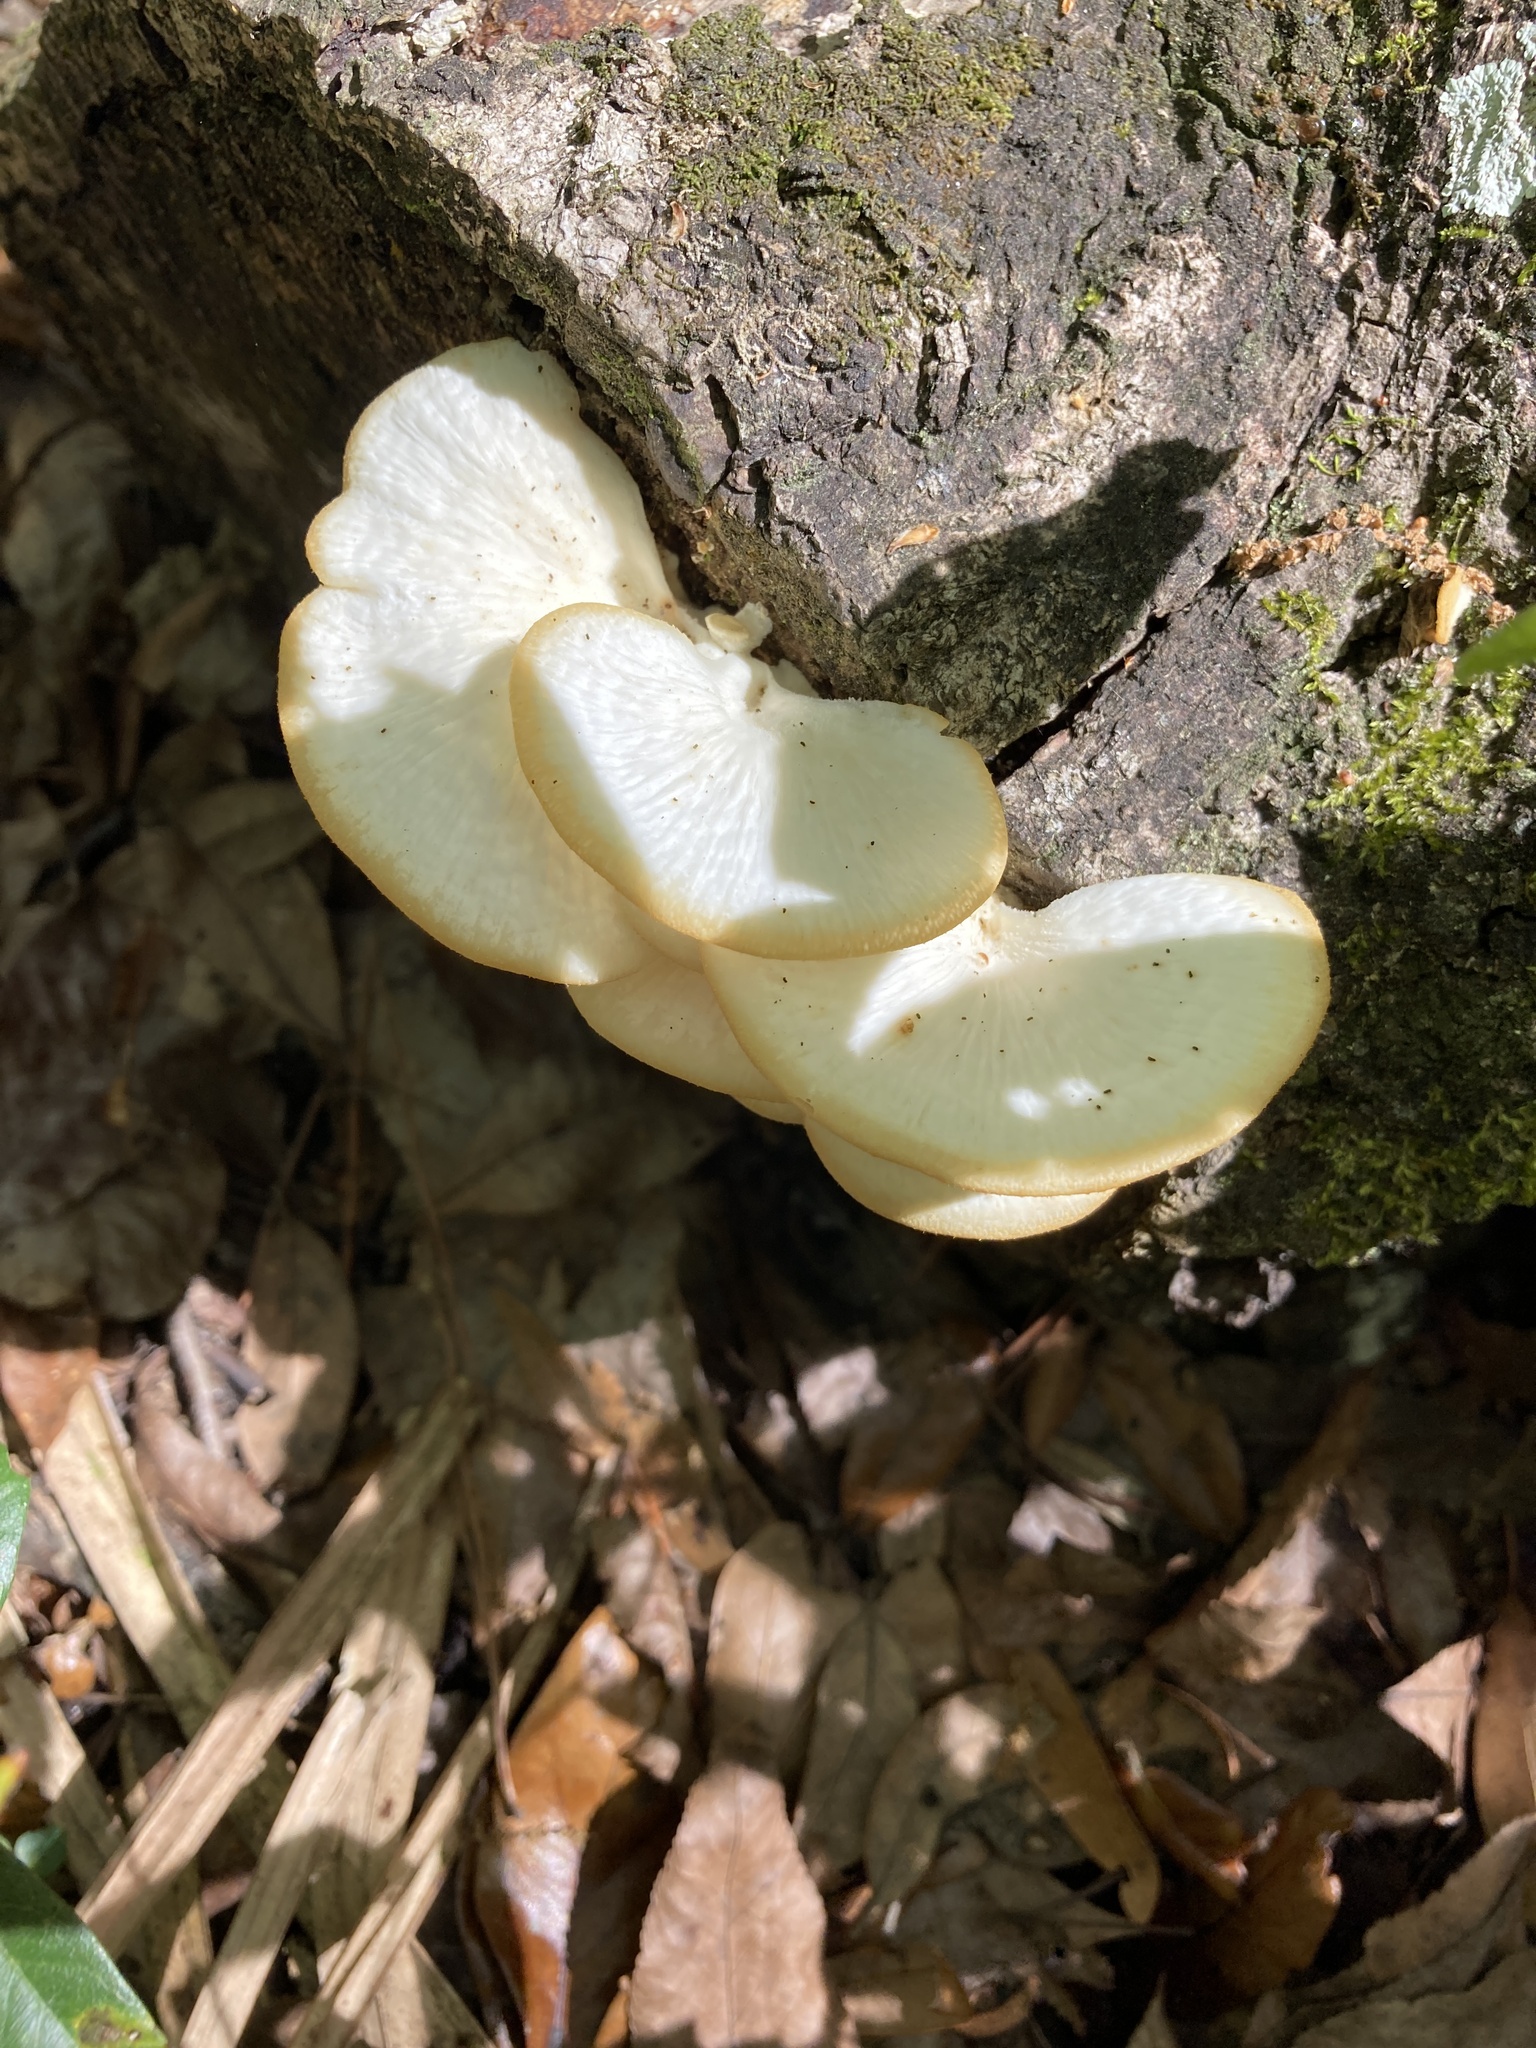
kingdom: Fungi
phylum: Basidiomycota
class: Agaricomycetes
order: Polyporales
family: Polyporaceae
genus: Favolus
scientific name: Favolus tenuiculus
